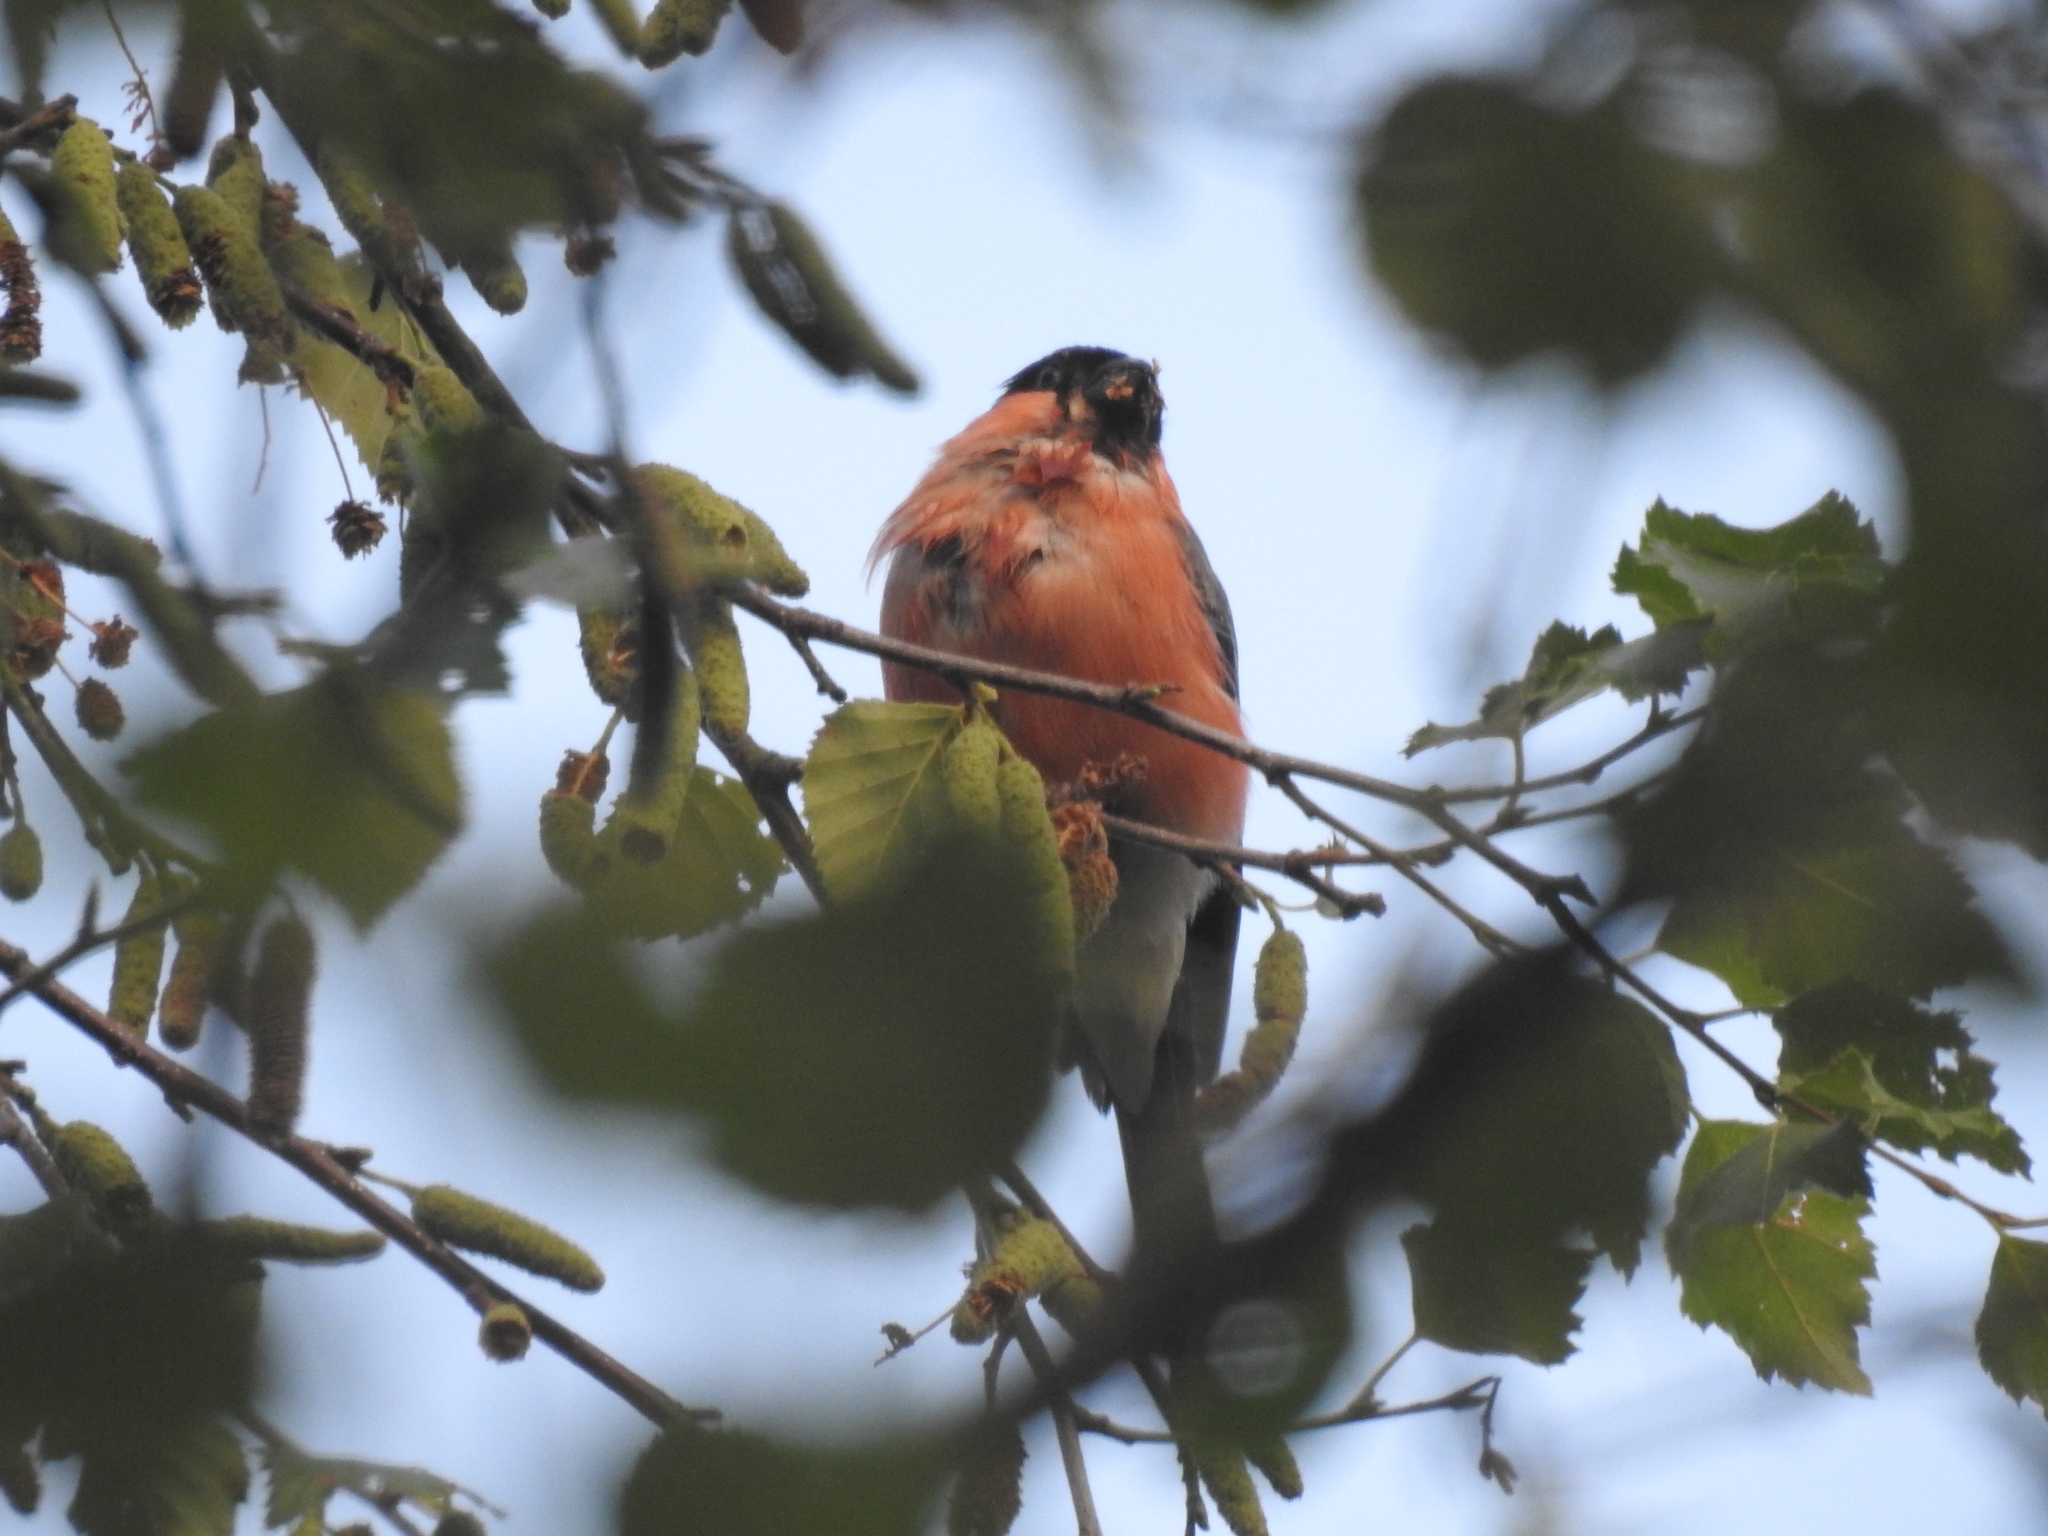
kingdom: Animalia
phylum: Chordata
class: Aves
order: Passeriformes
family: Fringillidae
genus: Pyrrhula
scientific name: Pyrrhula pyrrhula
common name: Eurasian bullfinch
